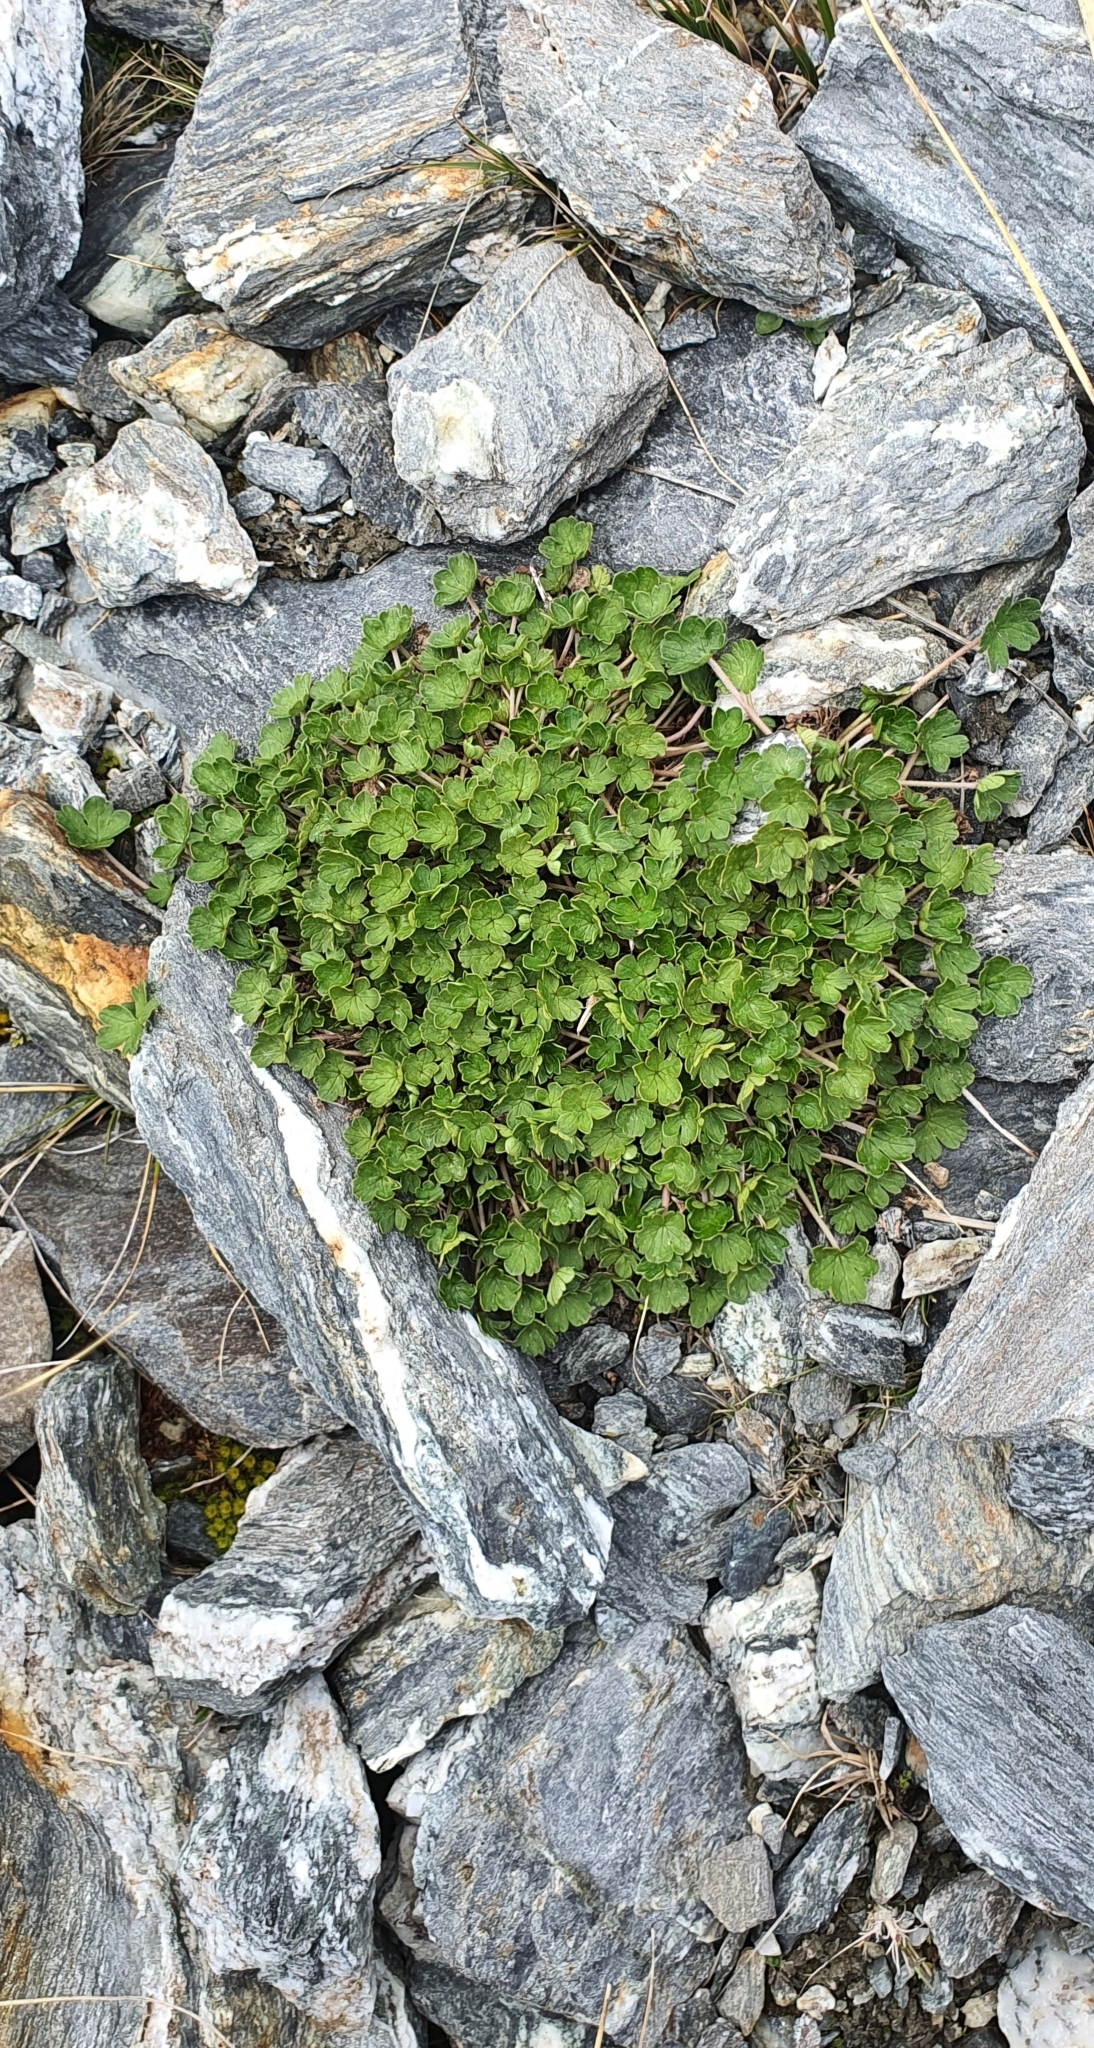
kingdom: Plantae
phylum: Tracheophyta
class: Magnoliopsida
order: Geraniales
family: Geraniaceae
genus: Geranium
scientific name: Geranium brevicaule
